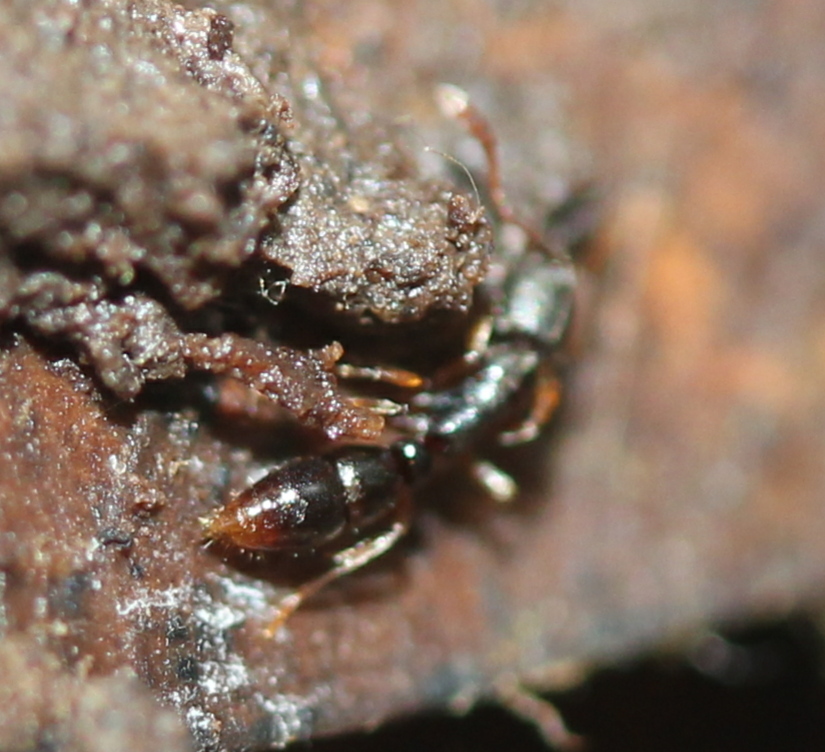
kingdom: Animalia
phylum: Arthropoda
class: Insecta
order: Hymenoptera
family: Formicidae
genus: Ponera
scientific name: Ponera pennsylvanica
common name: Pennsylvania ponera
